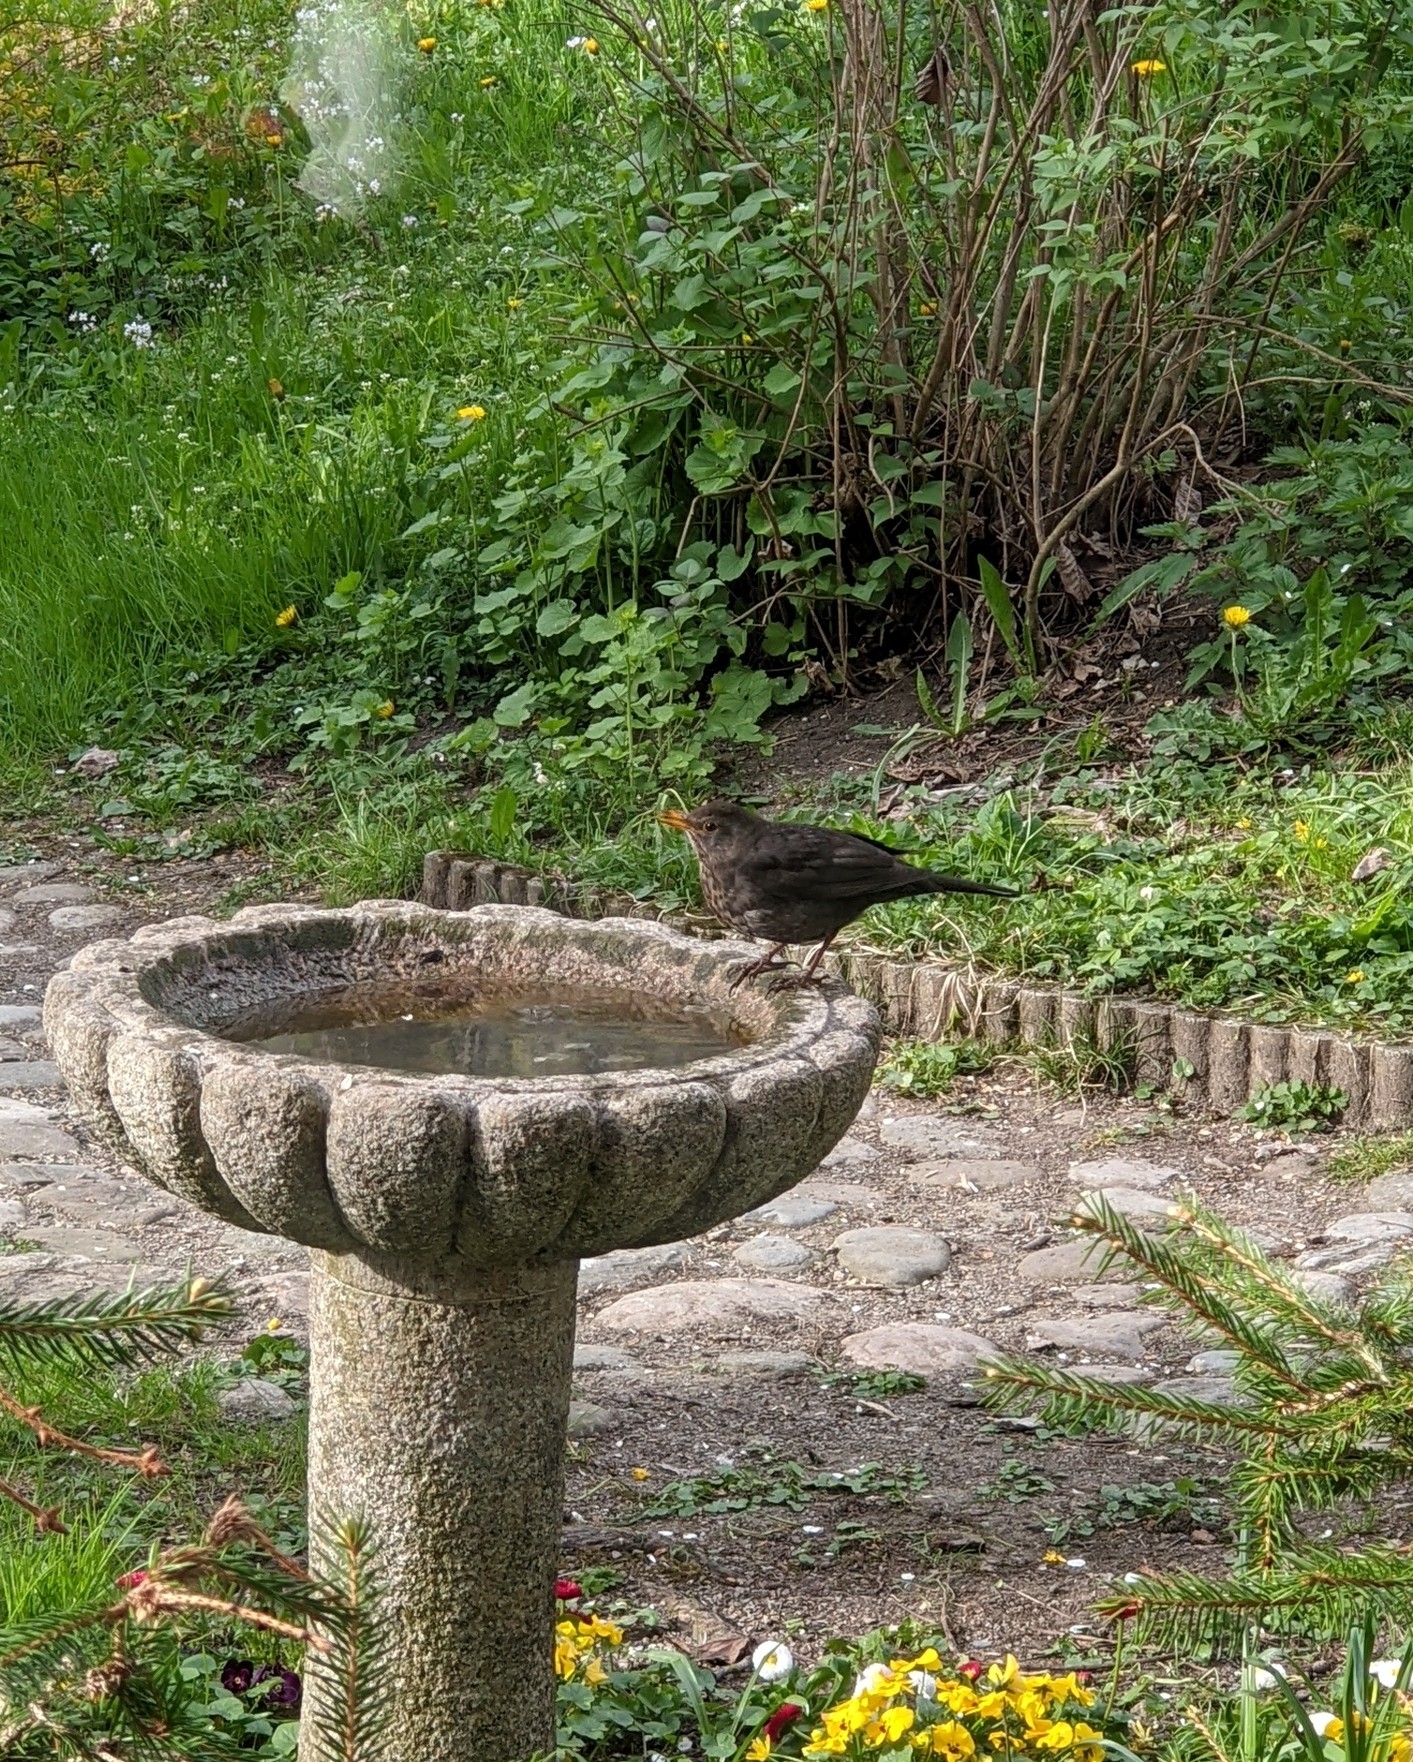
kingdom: Animalia
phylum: Chordata
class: Aves
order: Passeriformes
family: Turdidae
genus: Turdus
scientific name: Turdus merula
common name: Common blackbird
